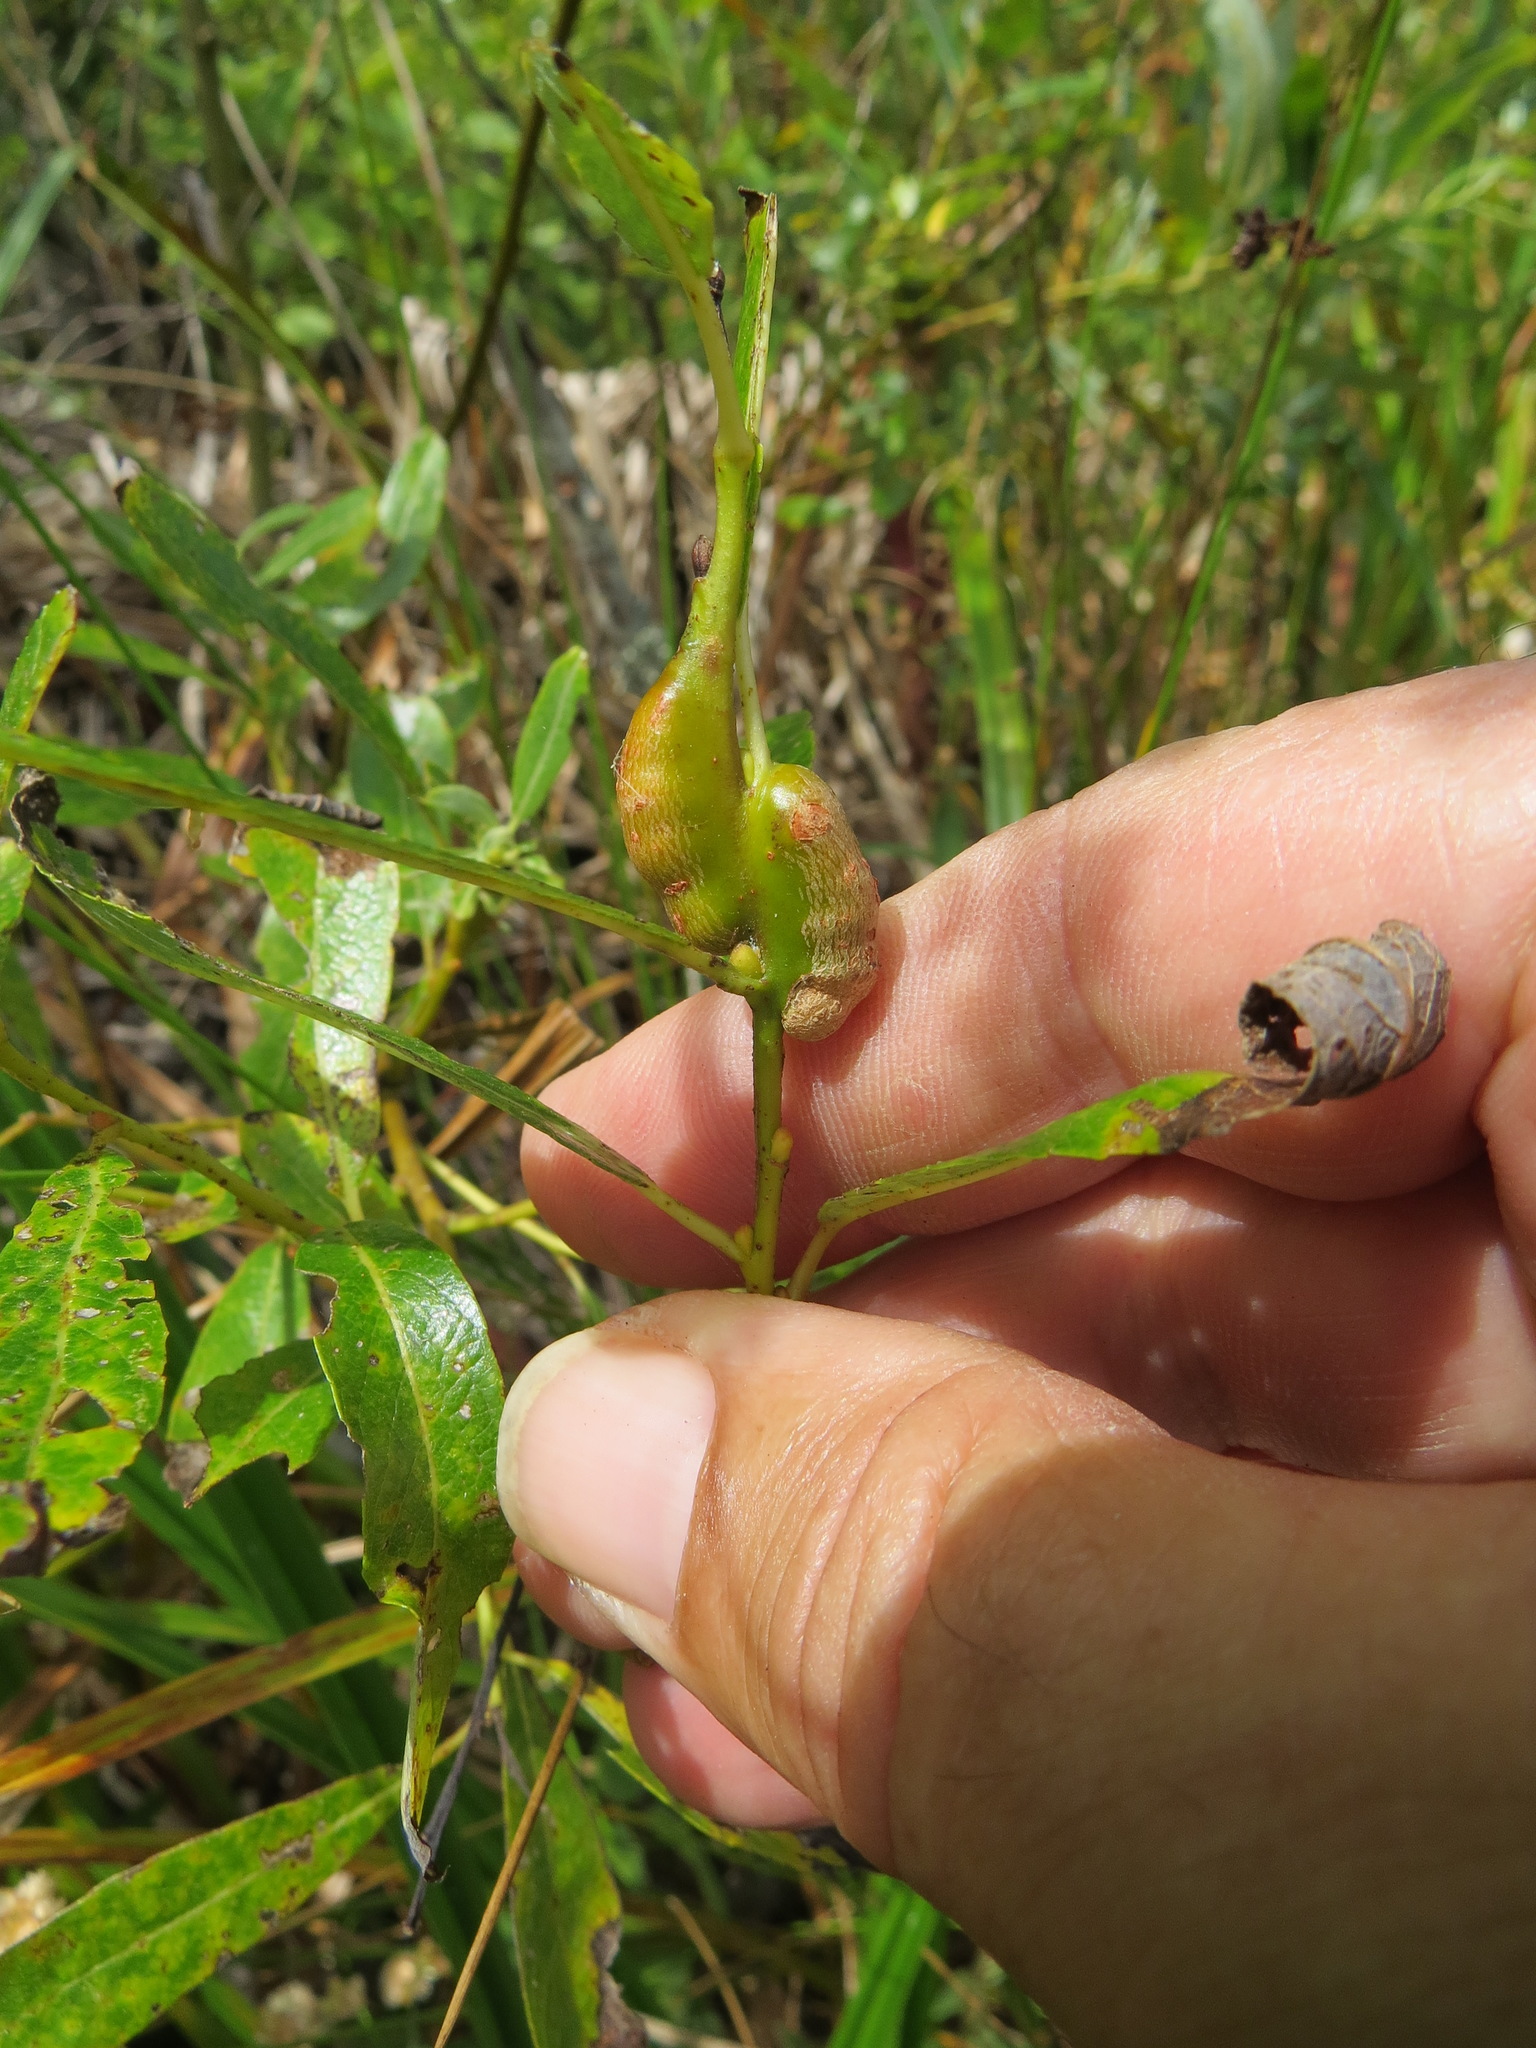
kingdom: Animalia
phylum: Arthropoda
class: Insecta
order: Hymenoptera
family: Tenthredinidae
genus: Euura
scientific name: Euura
